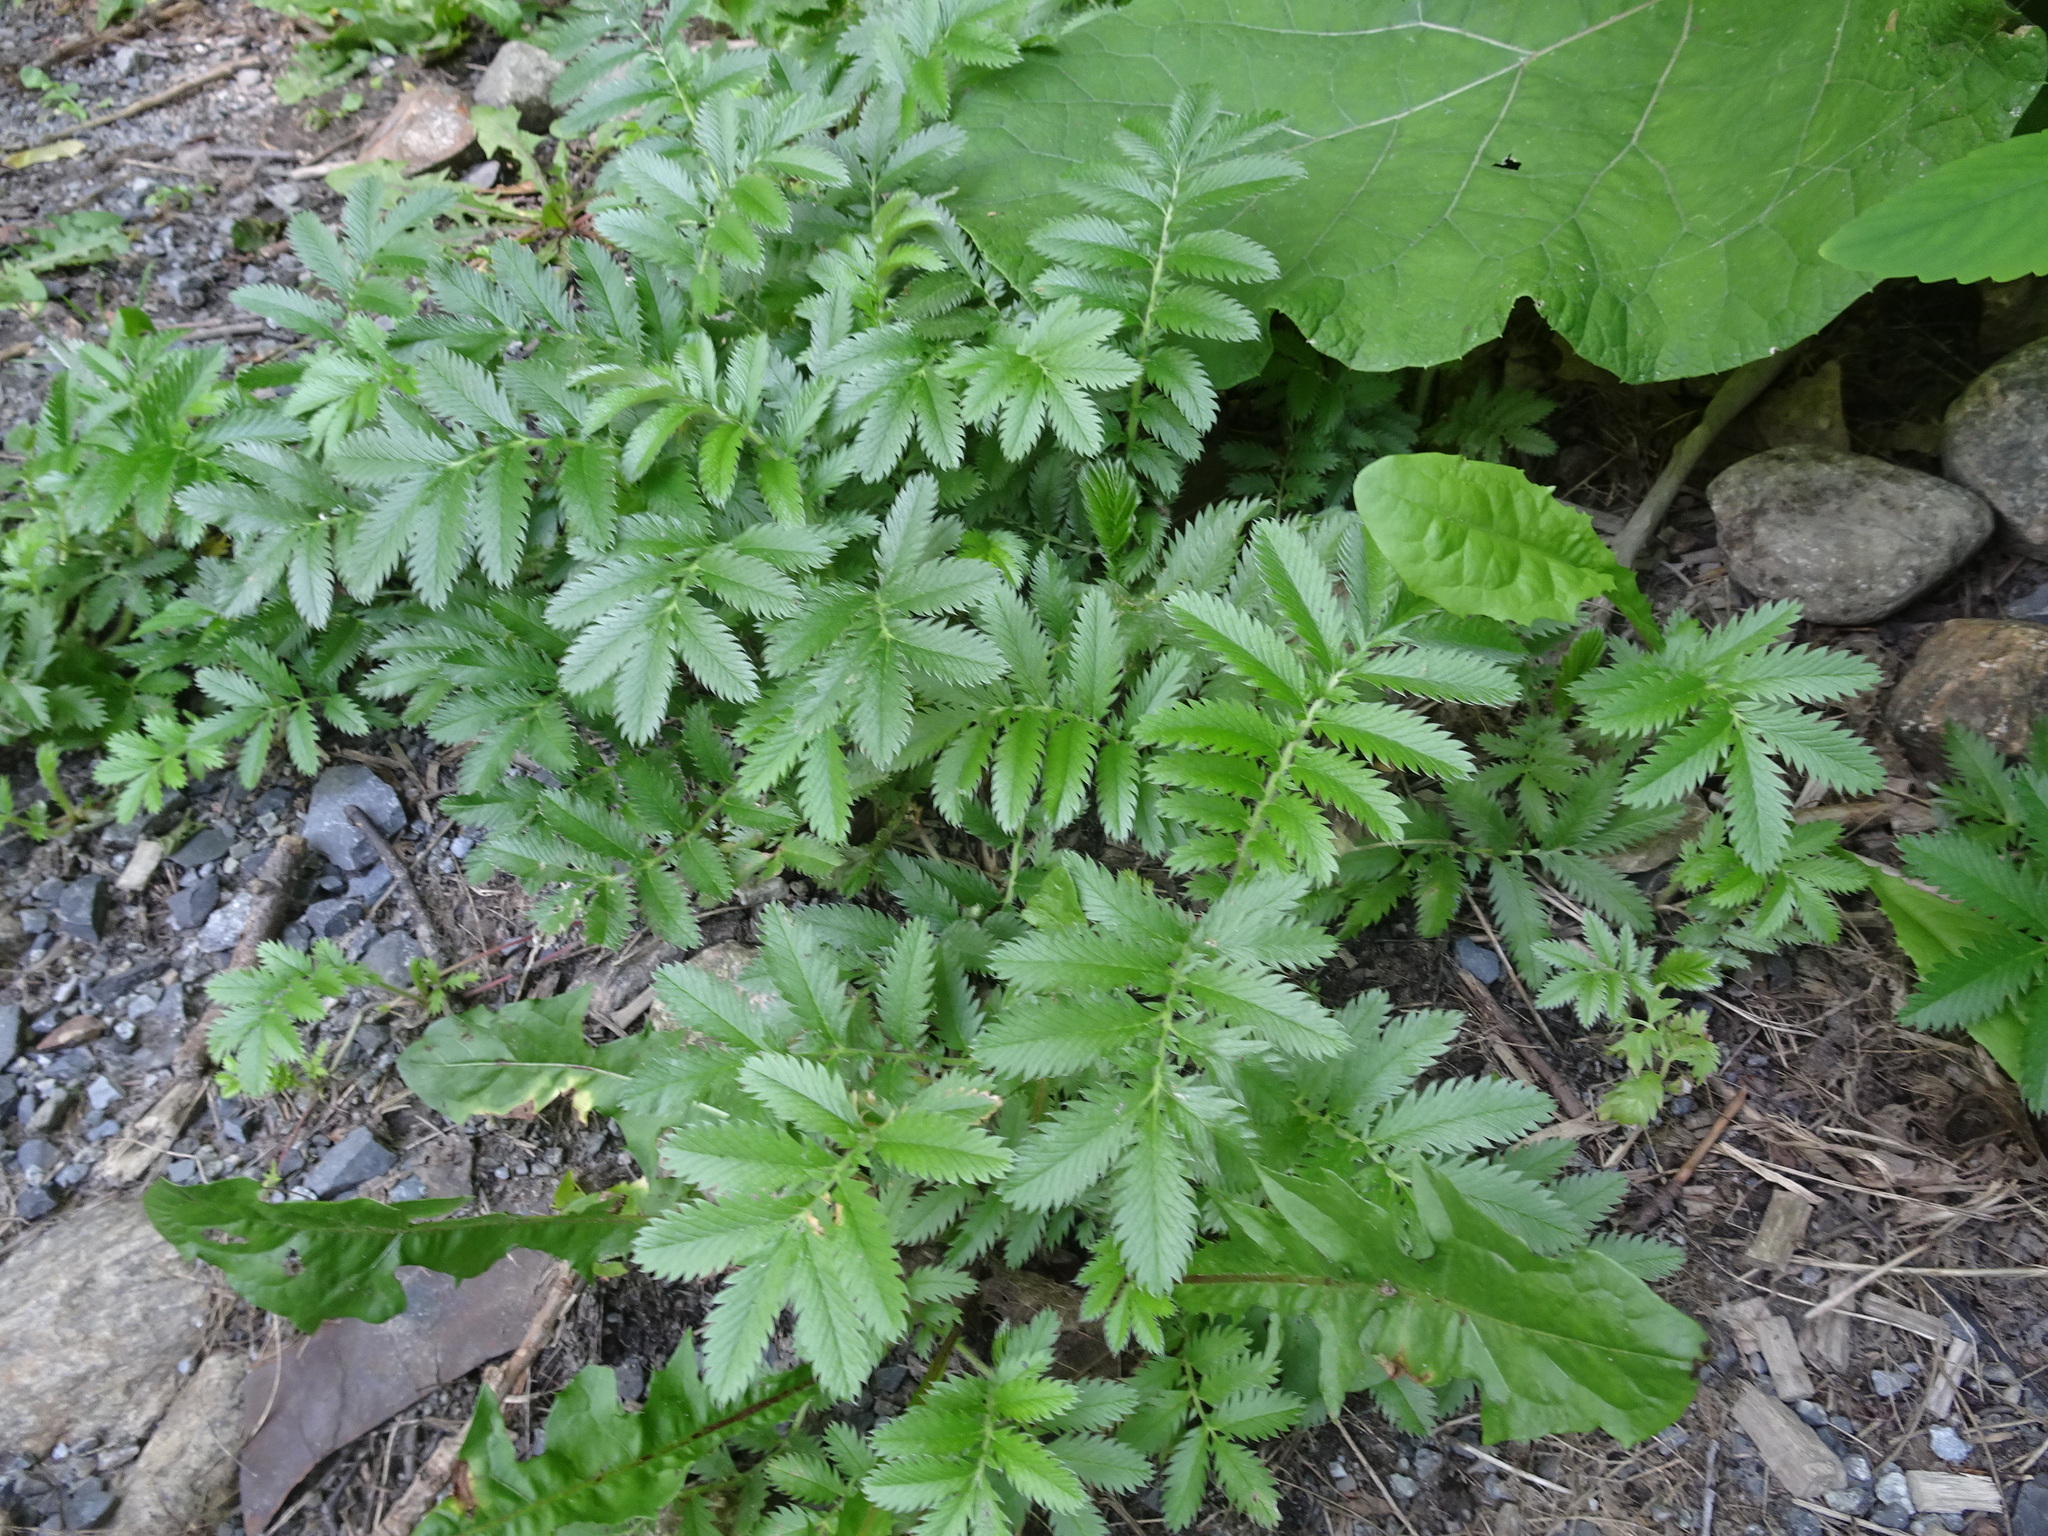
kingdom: Plantae
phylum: Tracheophyta
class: Magnoliopsida
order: Rosales
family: Rosaceae
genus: Argentina
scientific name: Argentina anserina
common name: Common silverweed
